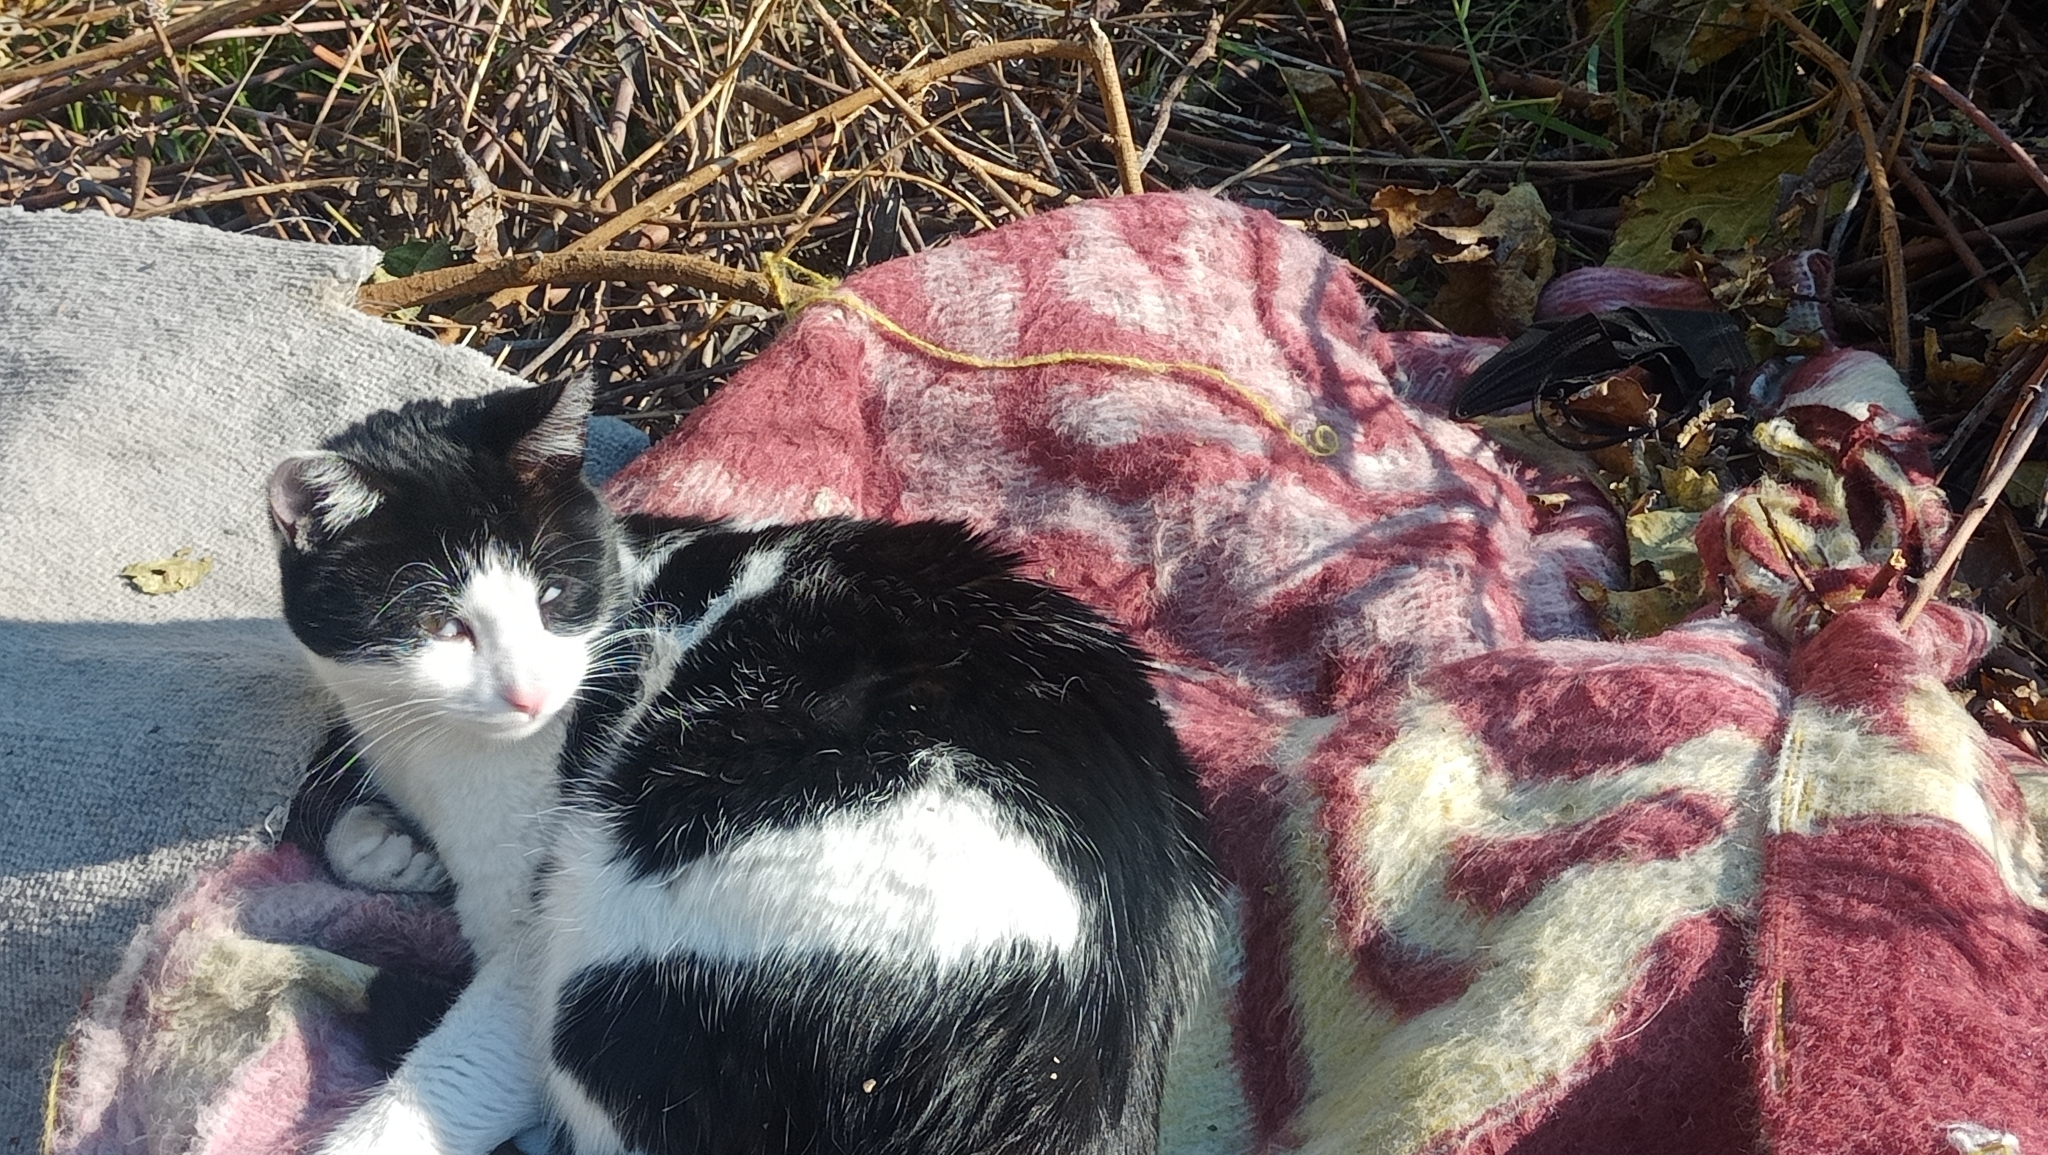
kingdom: Animalia
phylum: Chordata
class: Mammalia
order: Carnivora
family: Felidae
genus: Felis
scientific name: Felis catus
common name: Domestic cat
